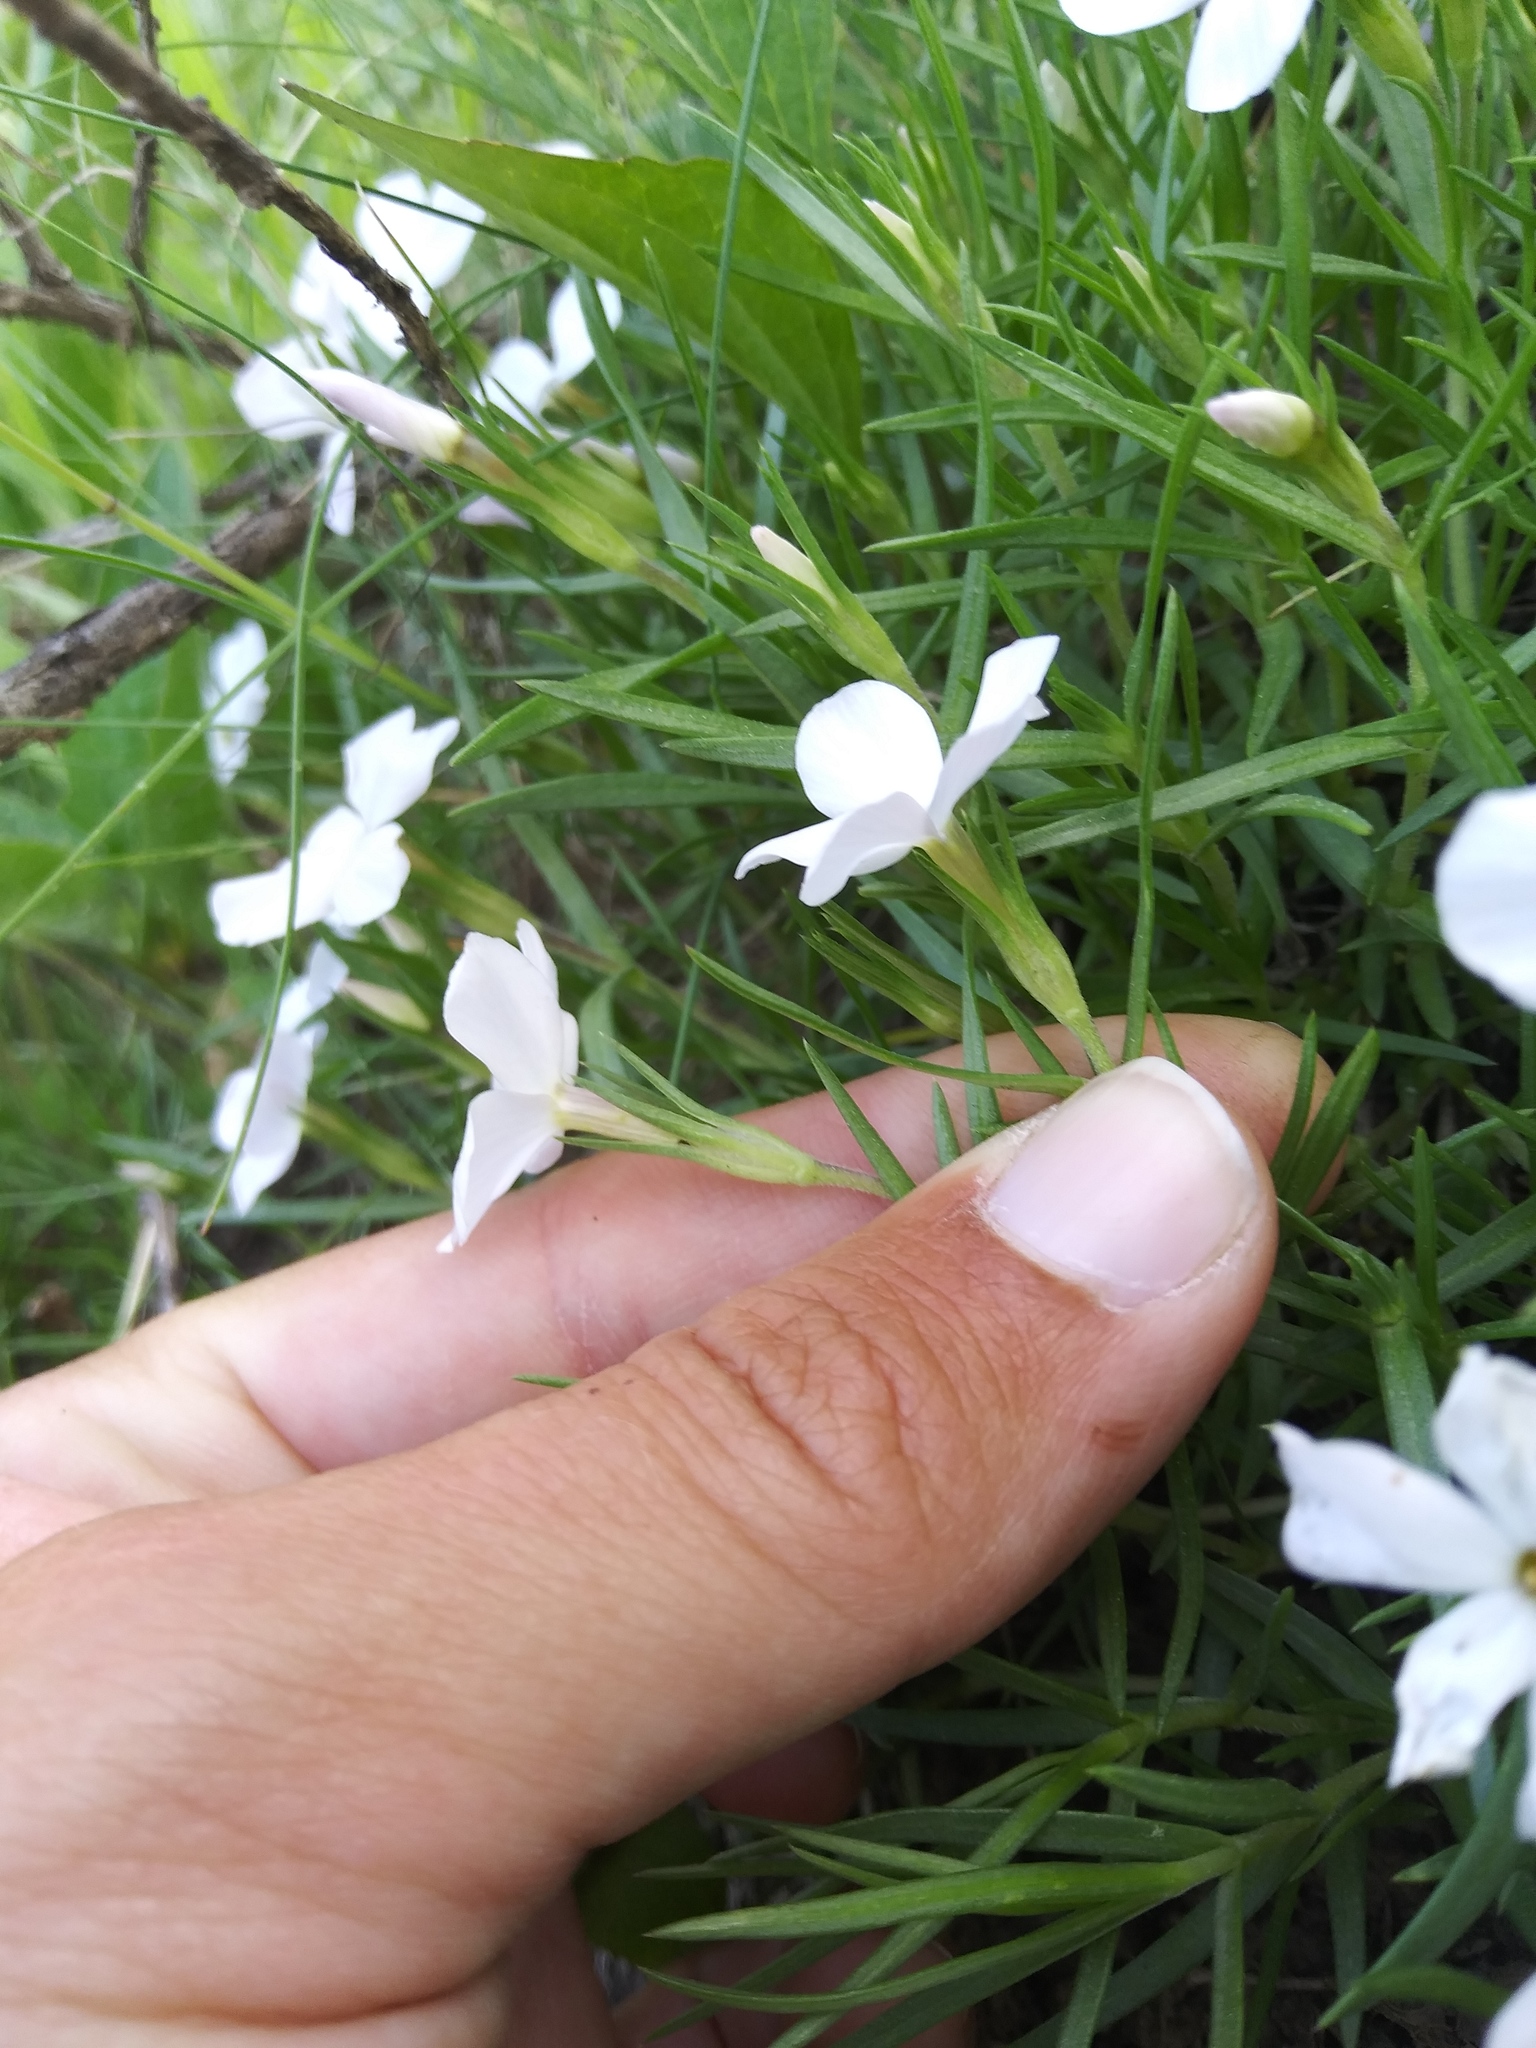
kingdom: Plantae
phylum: Tracheophyta
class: Magnoliopsida
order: Ericales
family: Polemoniaceae
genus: Phlox
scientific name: Phlox multiflora
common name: Rocky mountain phlox
